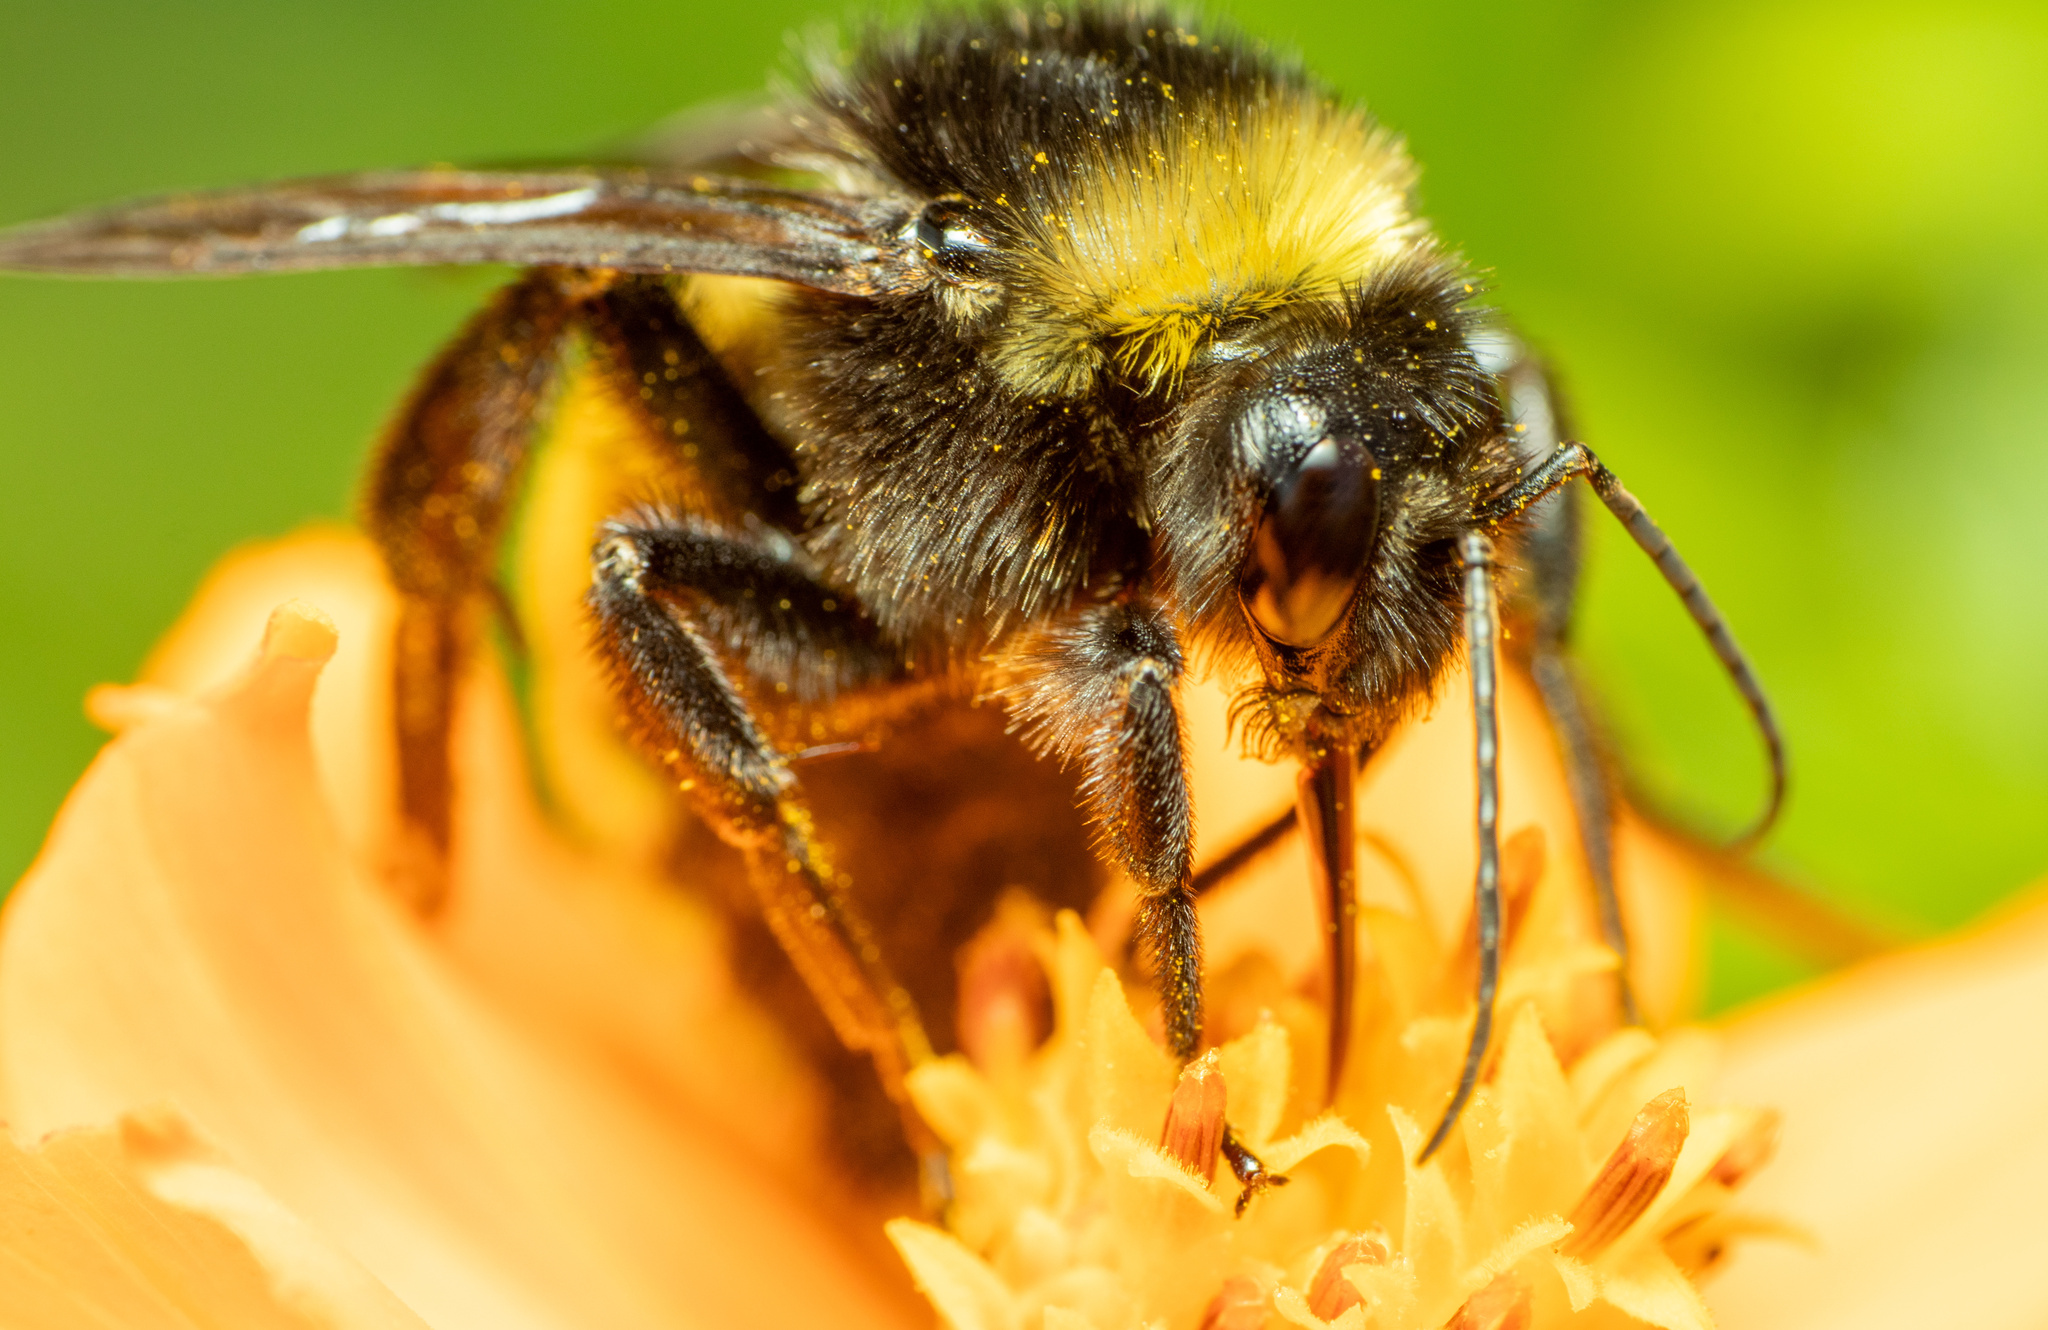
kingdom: Animalia
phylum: Arthropoda
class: Insecta
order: Hymenoptera
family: Apidae
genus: Bombus
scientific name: Bombus pensylvanicus
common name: Bumble bee
